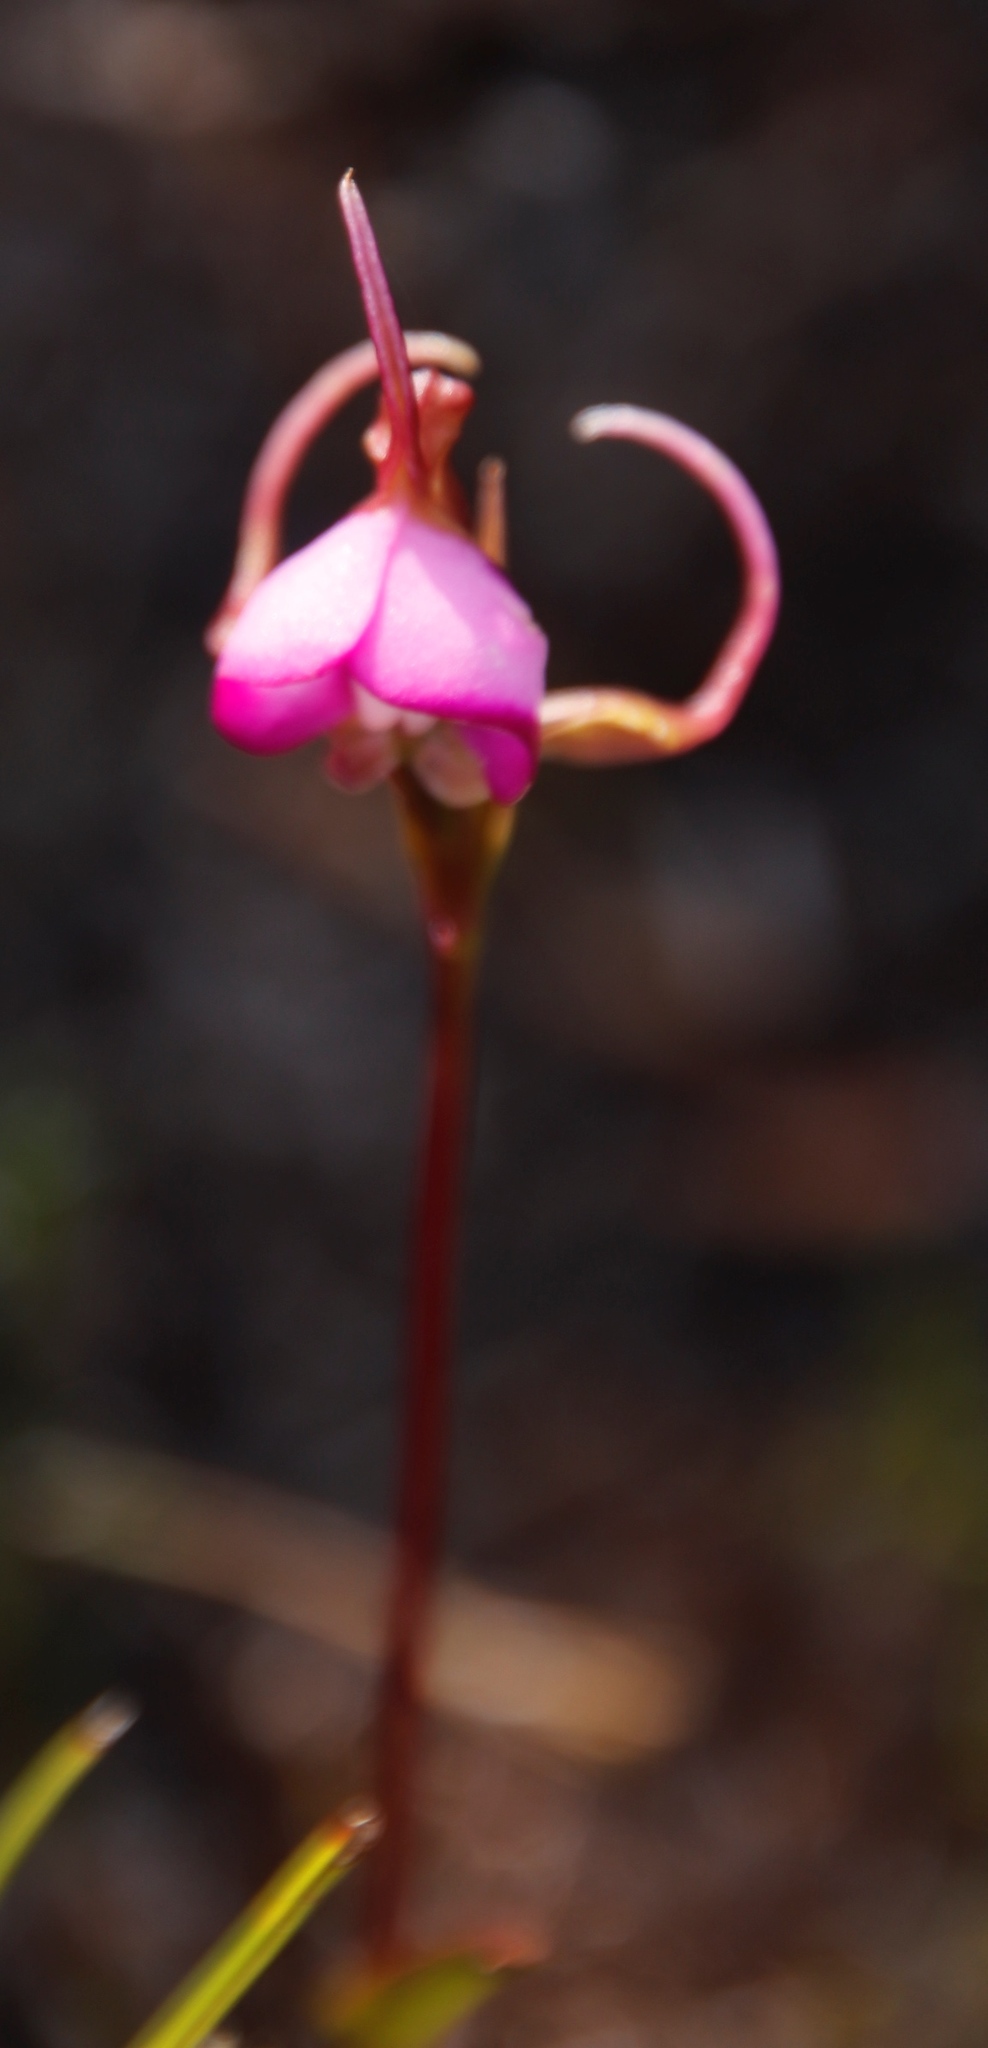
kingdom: Plantae
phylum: Tracheophyta
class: Liliopsida
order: Asparagales
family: Orchidaceae
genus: Disperis
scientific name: Disperis capensis
